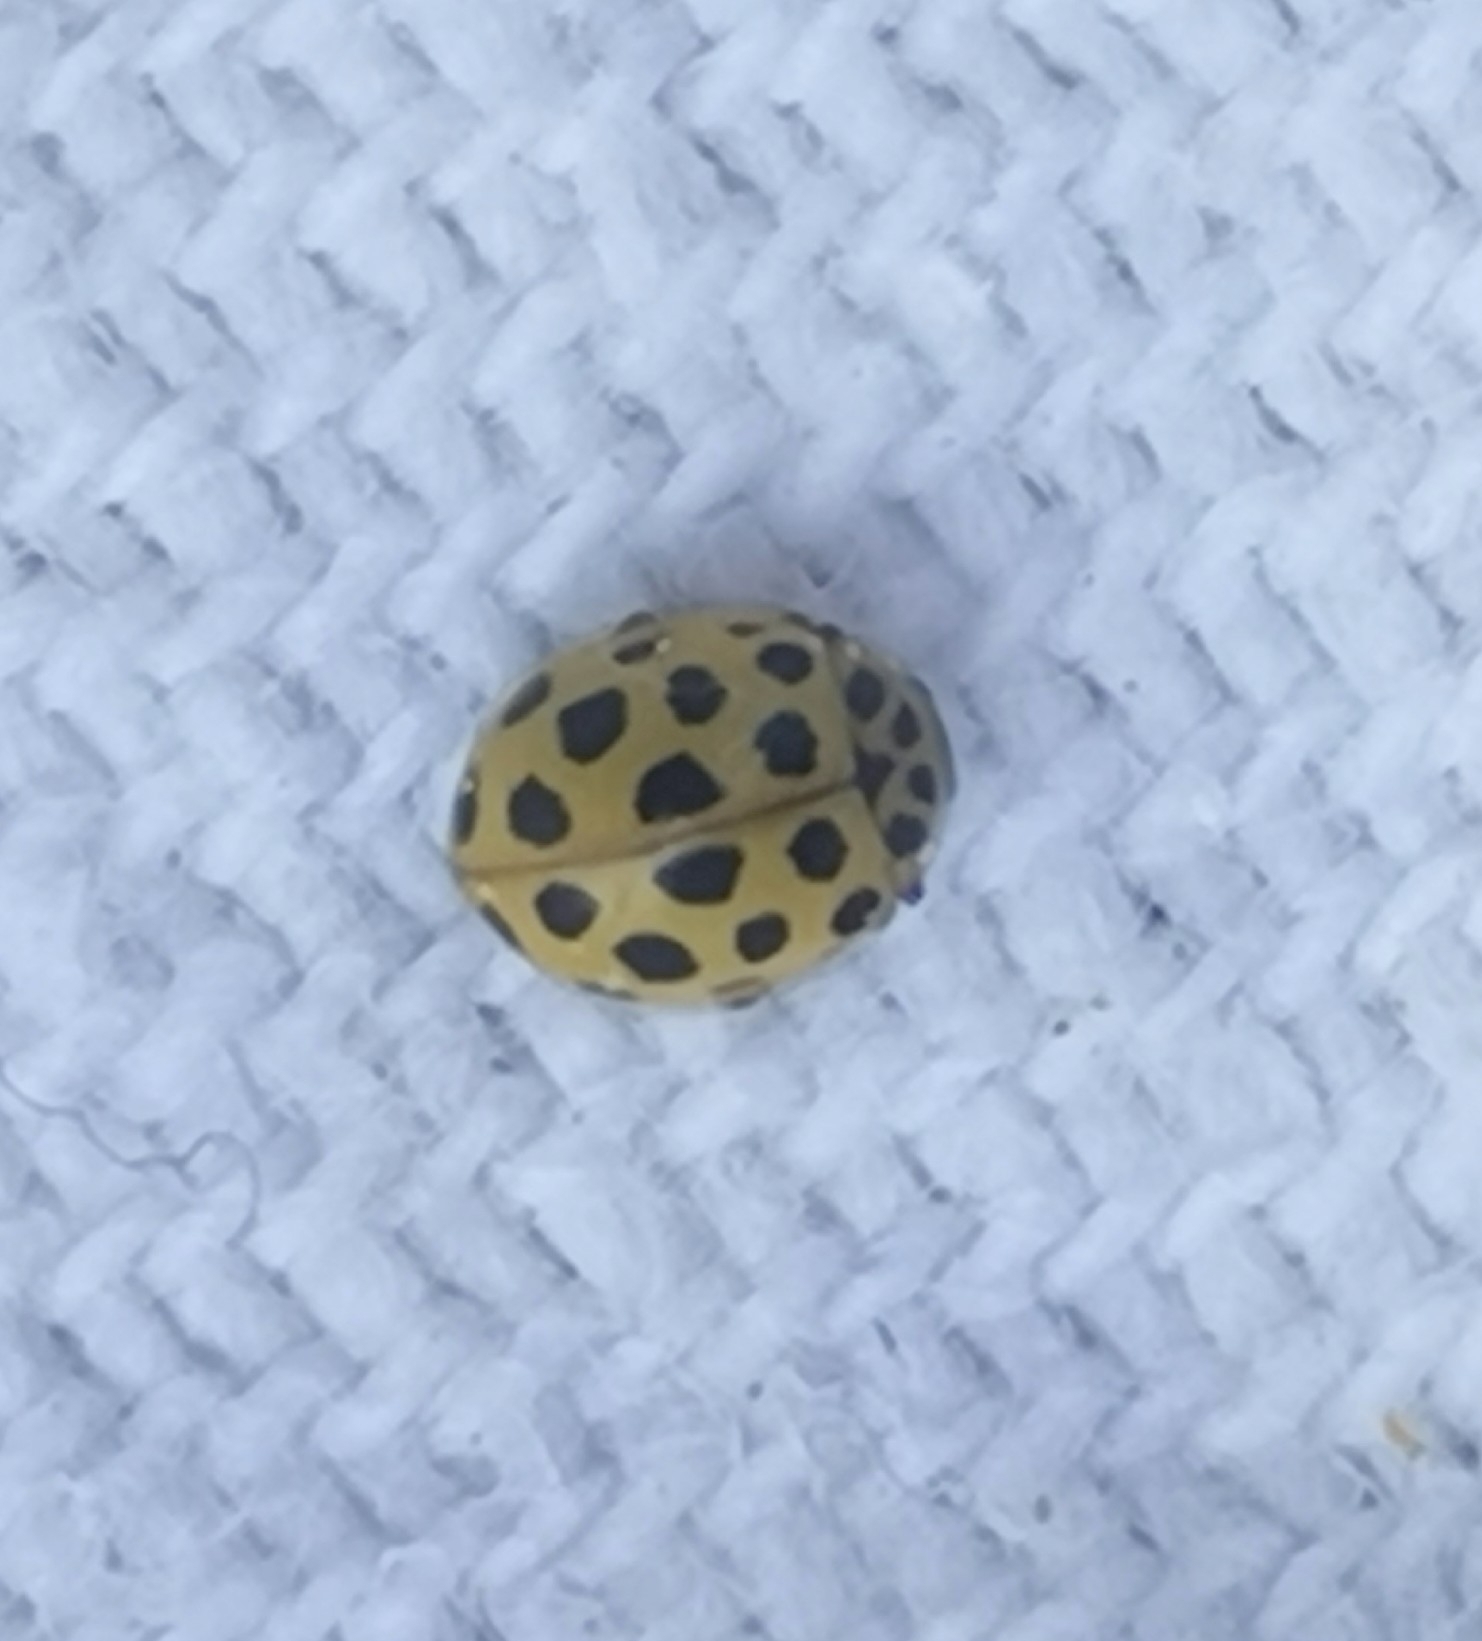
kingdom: Animalia
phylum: Arthropoda
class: Insecta
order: Coleoptera
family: Coccinellidae
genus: Psyllobora
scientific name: Psyllobora vigintiduopunctata
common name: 22-spot ladybird
